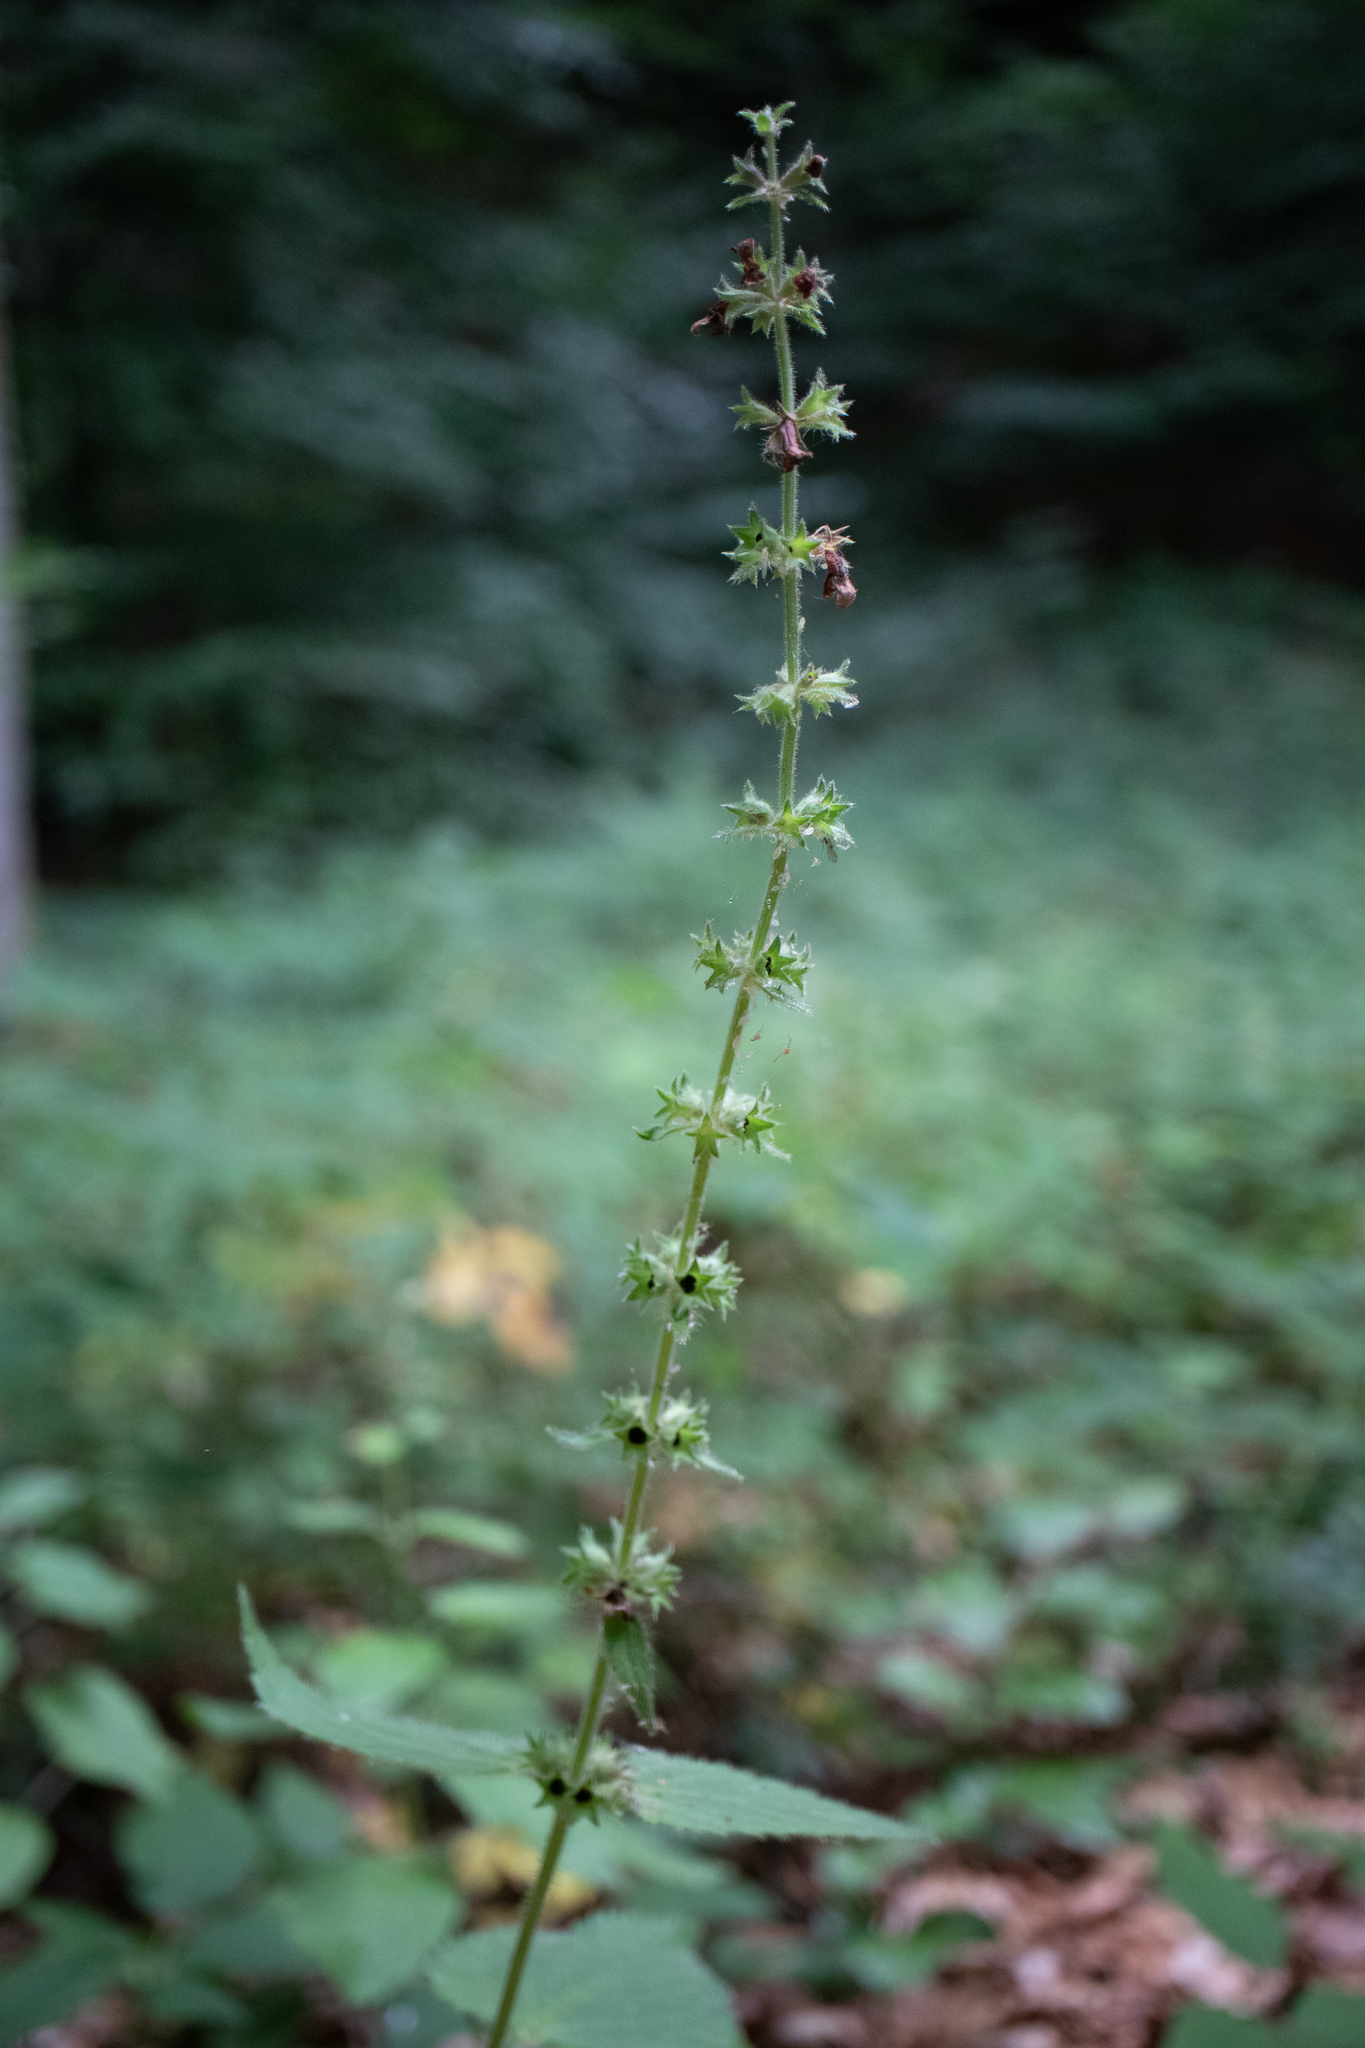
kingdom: Plantae
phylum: Tracheophyta
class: Magnoliopsida
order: Lamiales
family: Lamiaceae
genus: Stachys
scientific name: Stachys sylvatica
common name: Hedge woundwort
